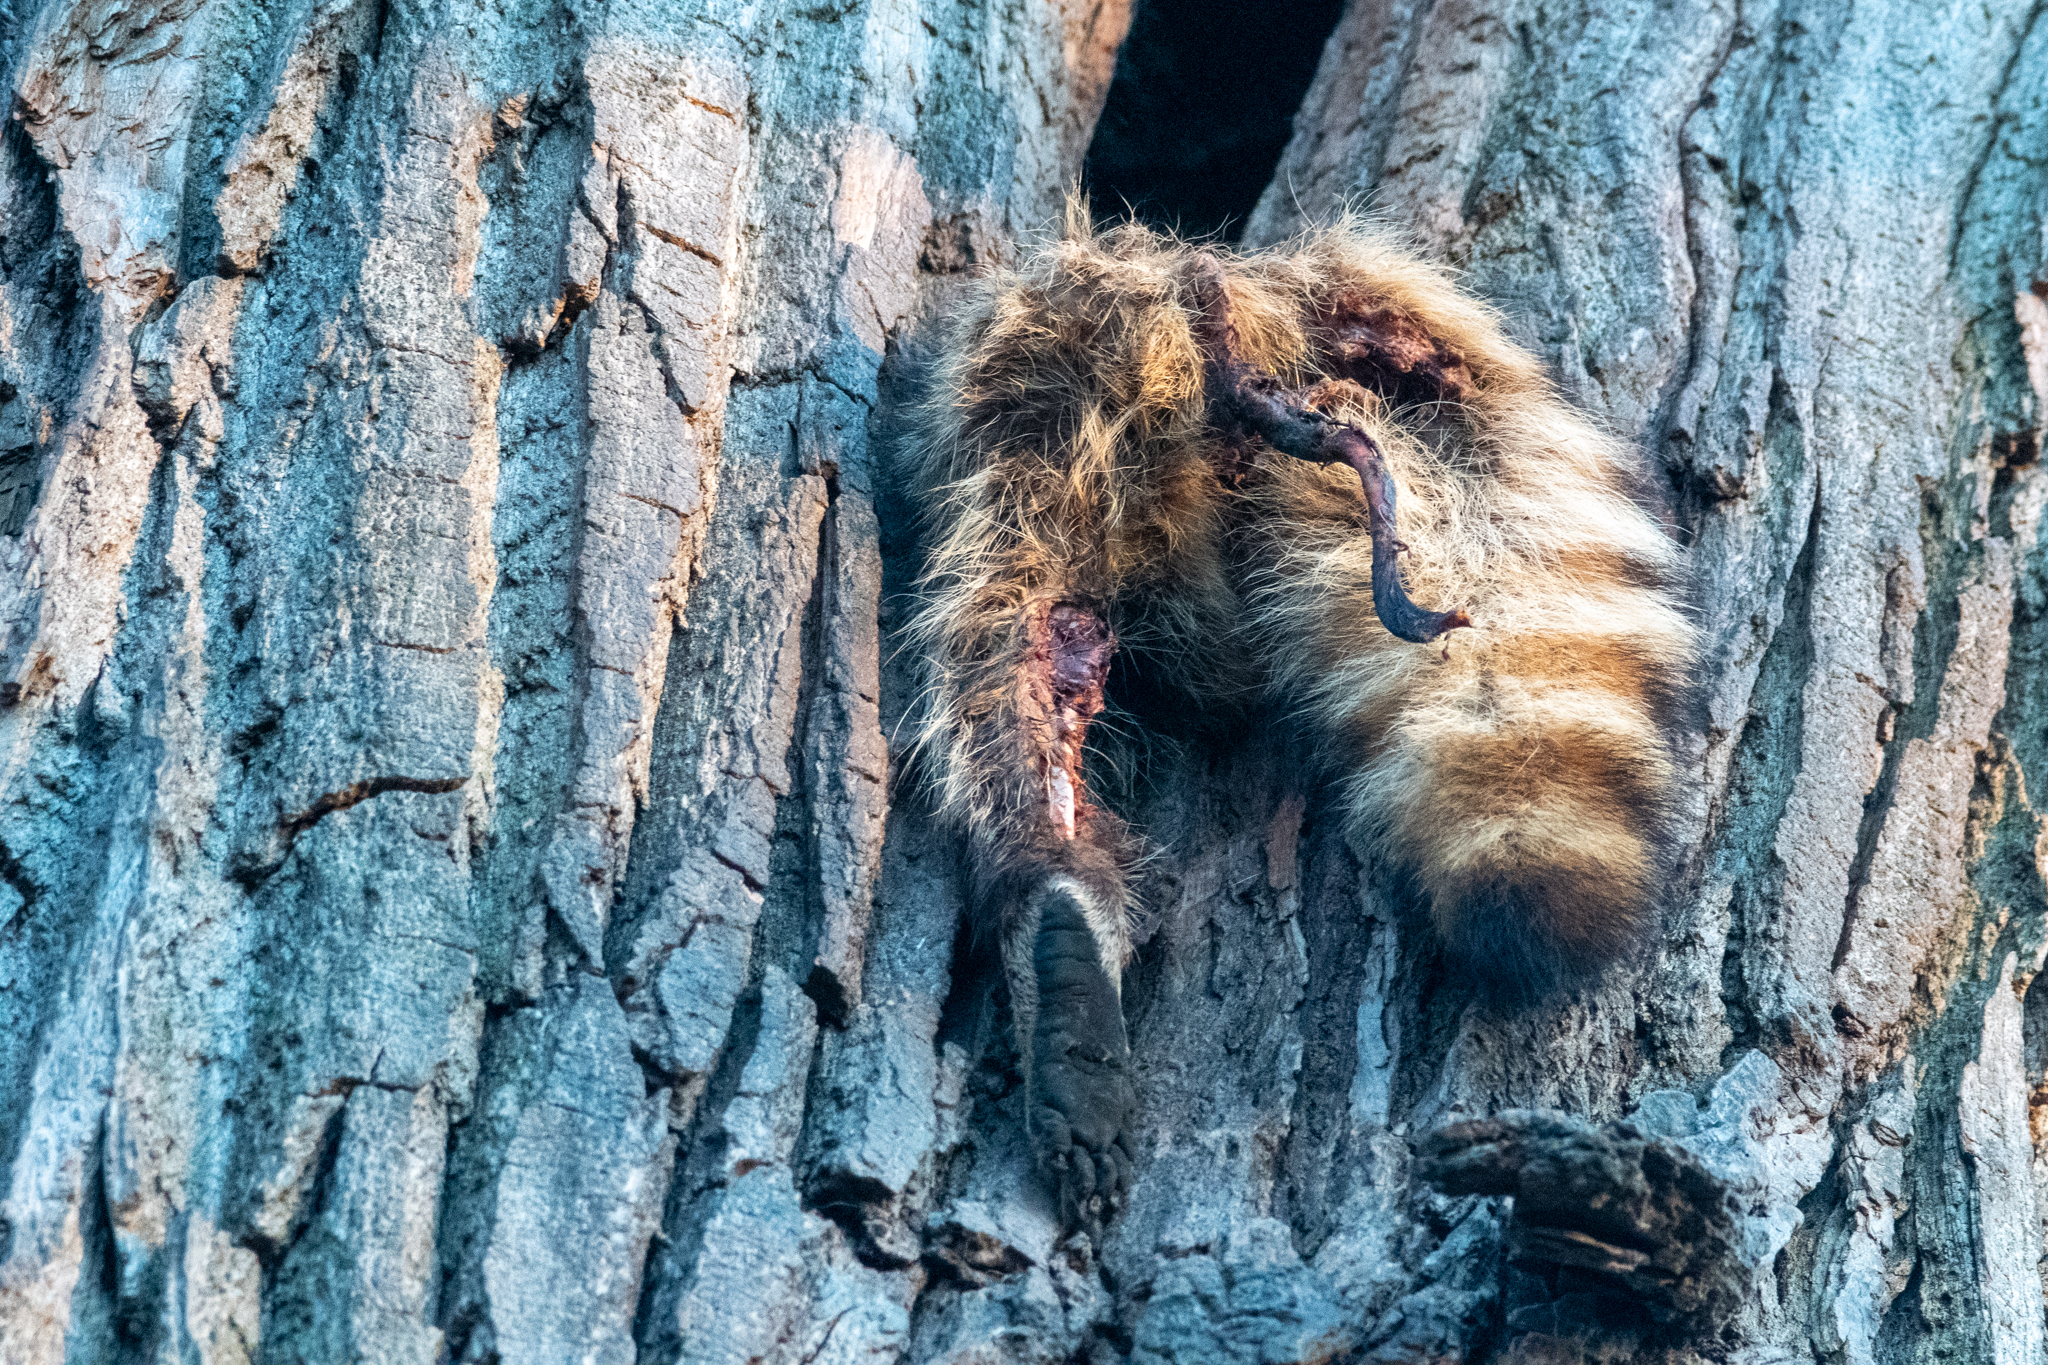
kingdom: Animalia
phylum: Chordata
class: Mammalia
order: Carnivora
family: Procyonidae
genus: Procyon
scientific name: Procyon lotor
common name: Raccoon
